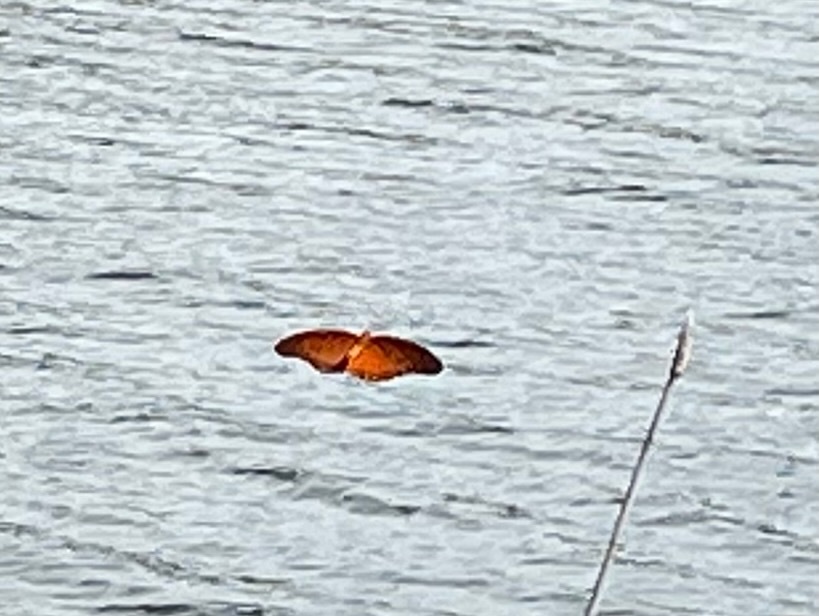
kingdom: Animalia
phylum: Arthropoda
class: Insecta
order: Lepidoptera
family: Nymphalidae
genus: Dione
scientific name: Dione vanillae
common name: Gulf fritillary
